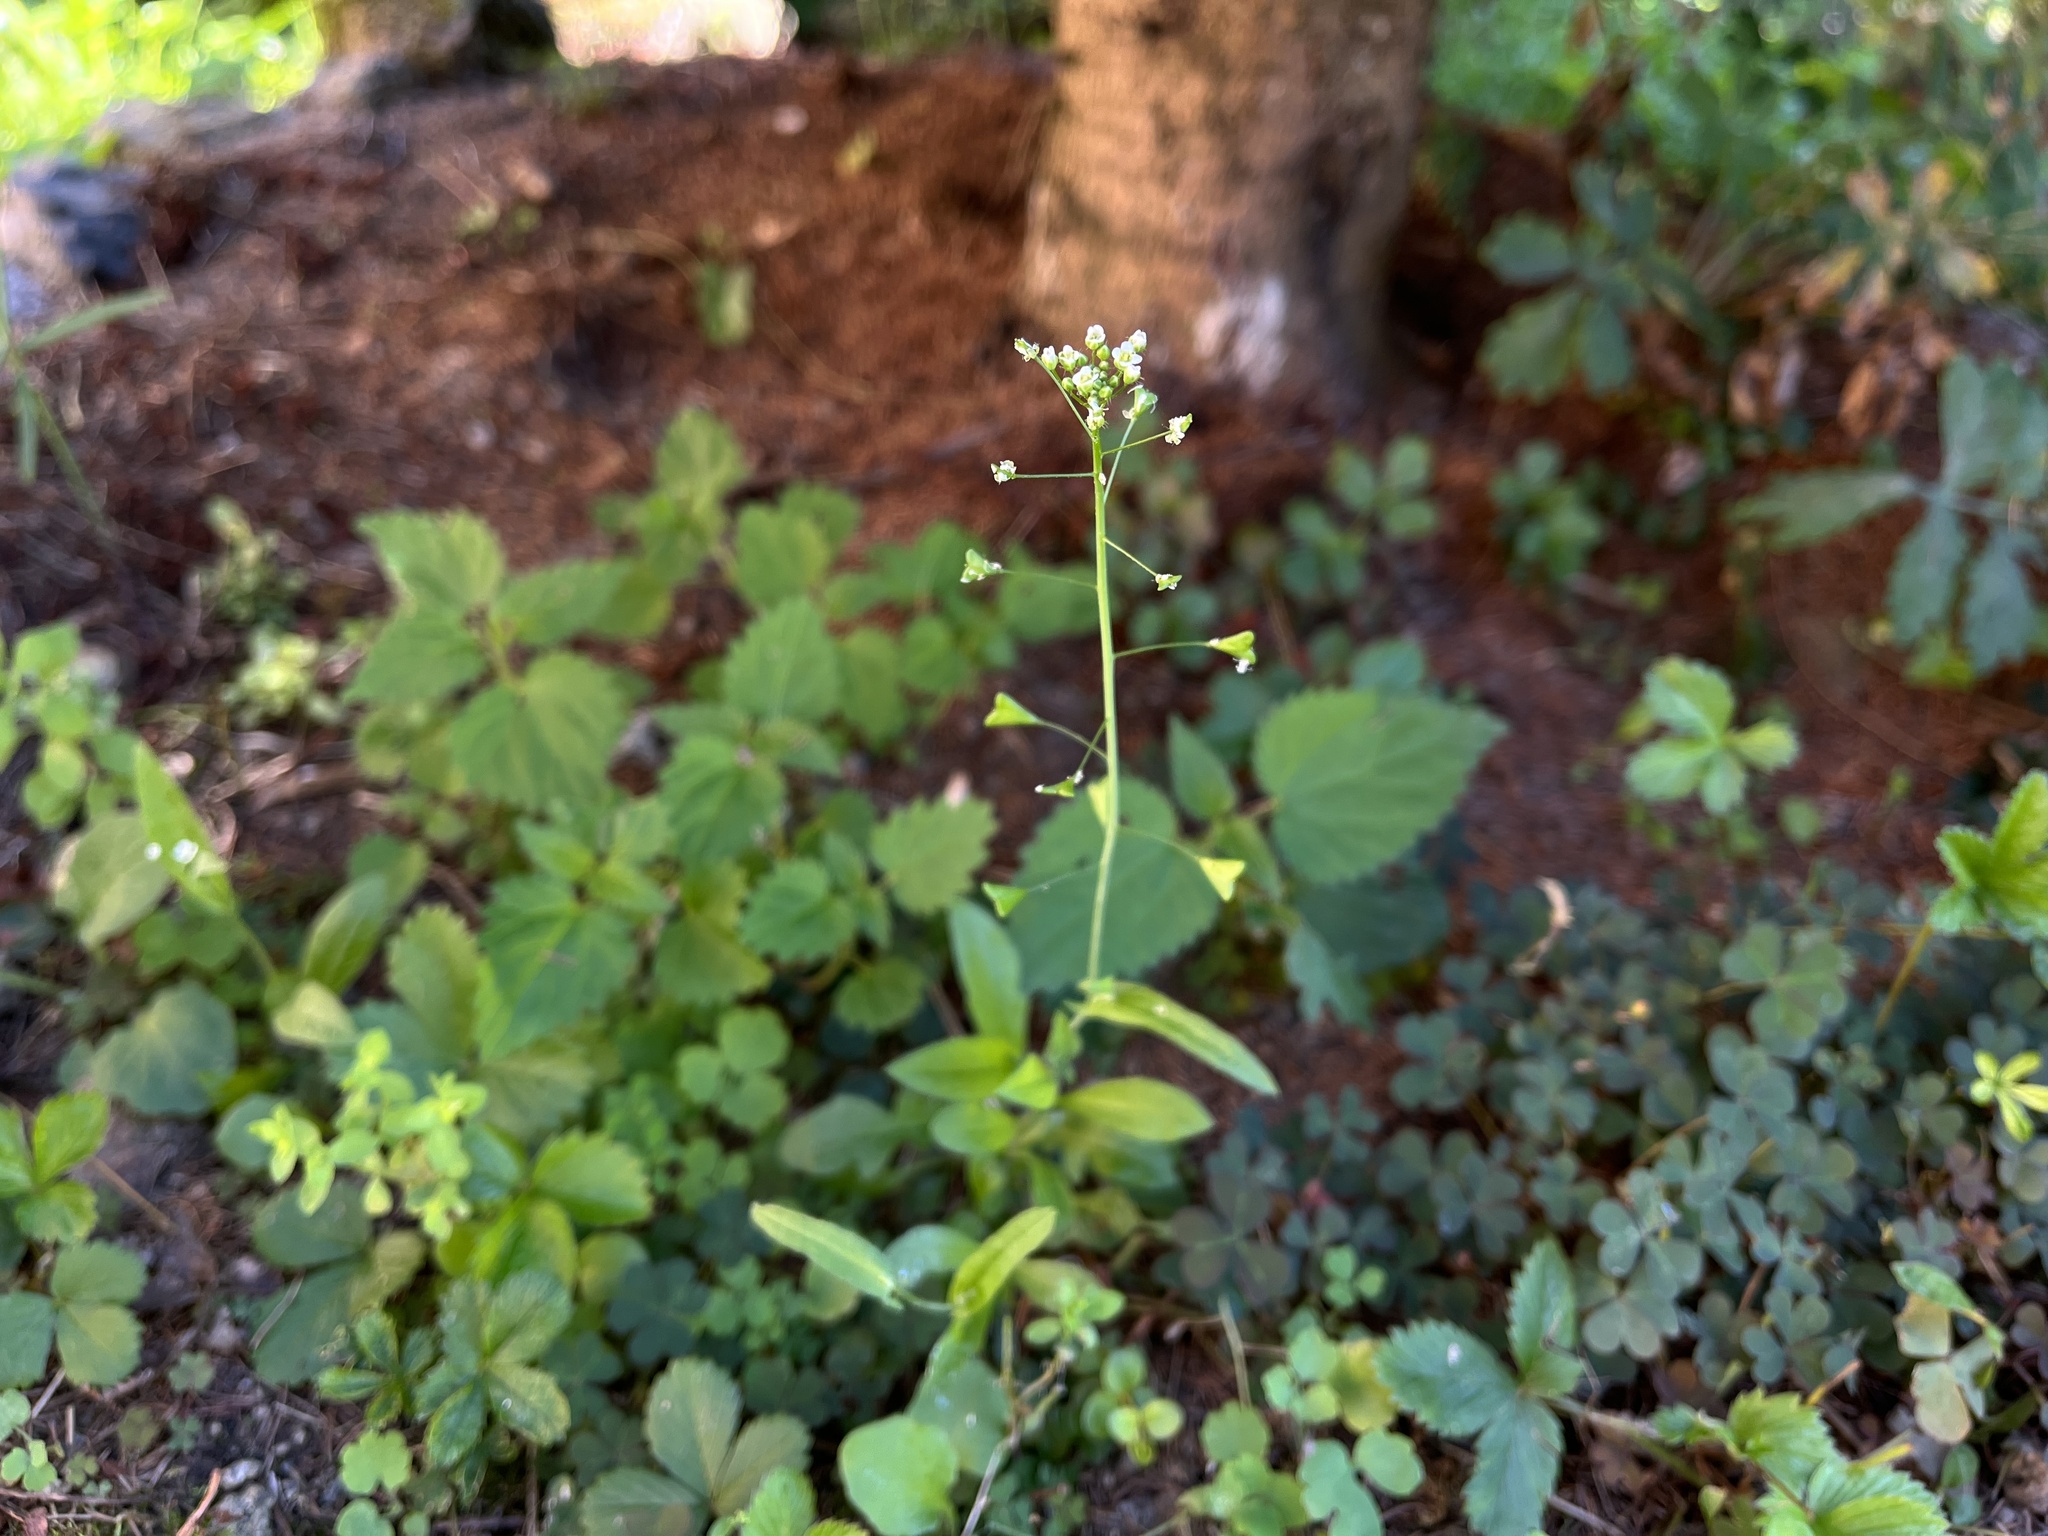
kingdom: Plantae
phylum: Tracheophyta
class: Magnoliopsida
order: Brassicales
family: Brassicaceae
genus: Capsella
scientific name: Capsella bursa-pastoris
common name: Shepherd's purse
